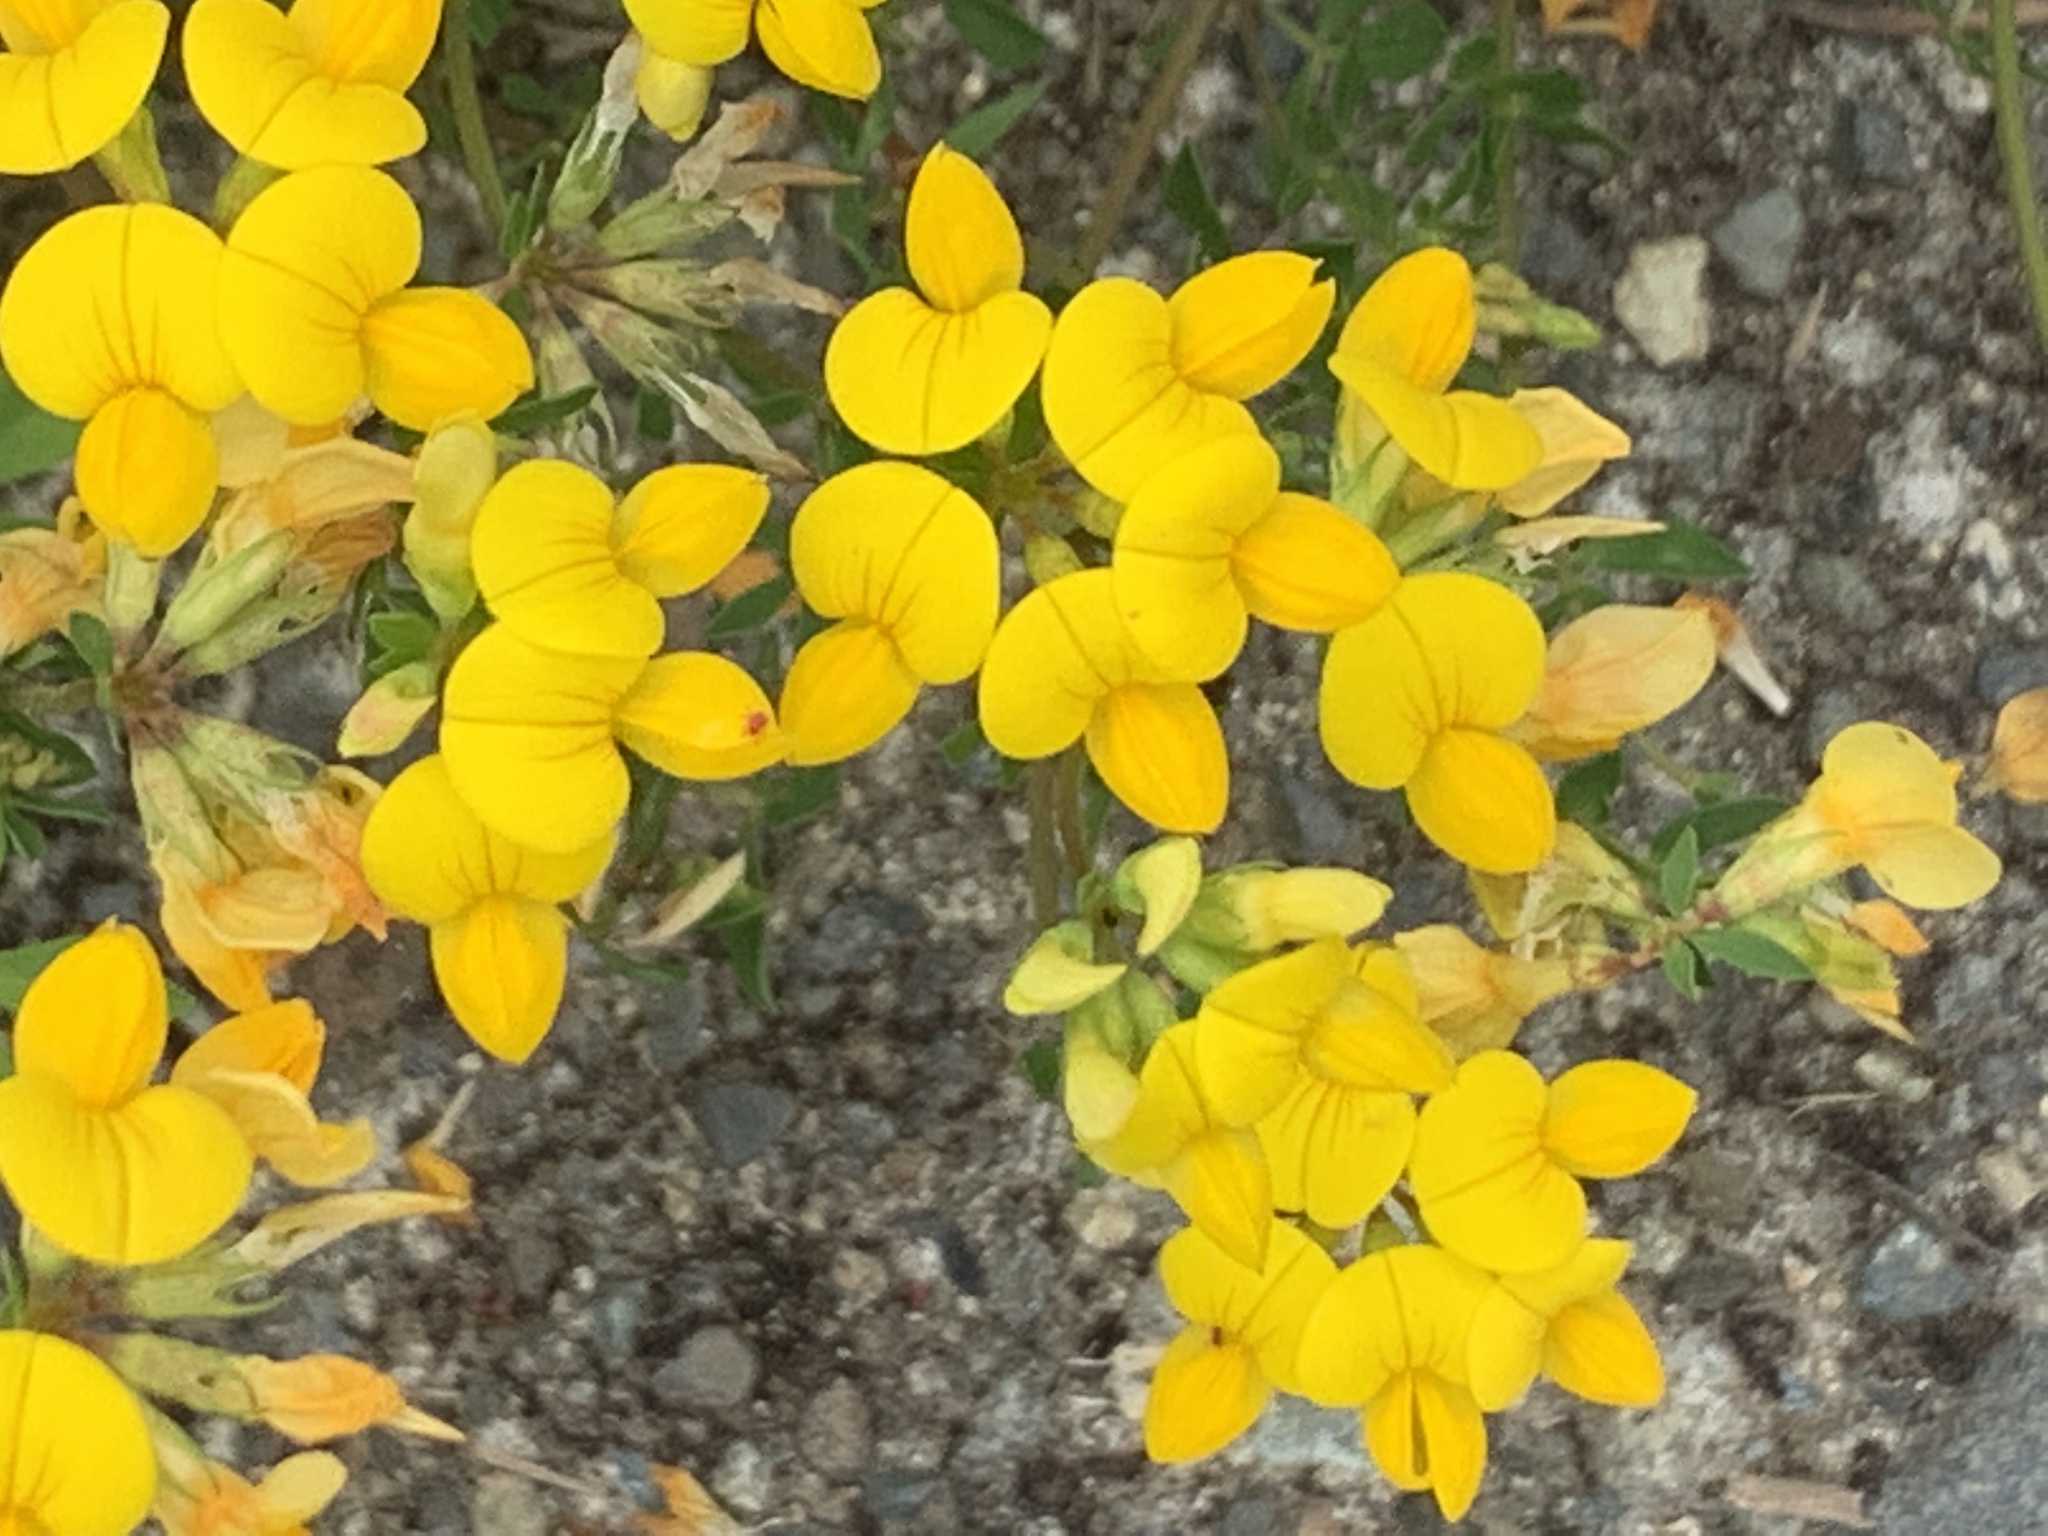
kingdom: Plantae
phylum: Tracheophyta
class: Magnoliopsida
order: Fabales
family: Fabaceae
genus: Lotus
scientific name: Lotus corniculatus
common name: Common bird's-foot-trefoil
